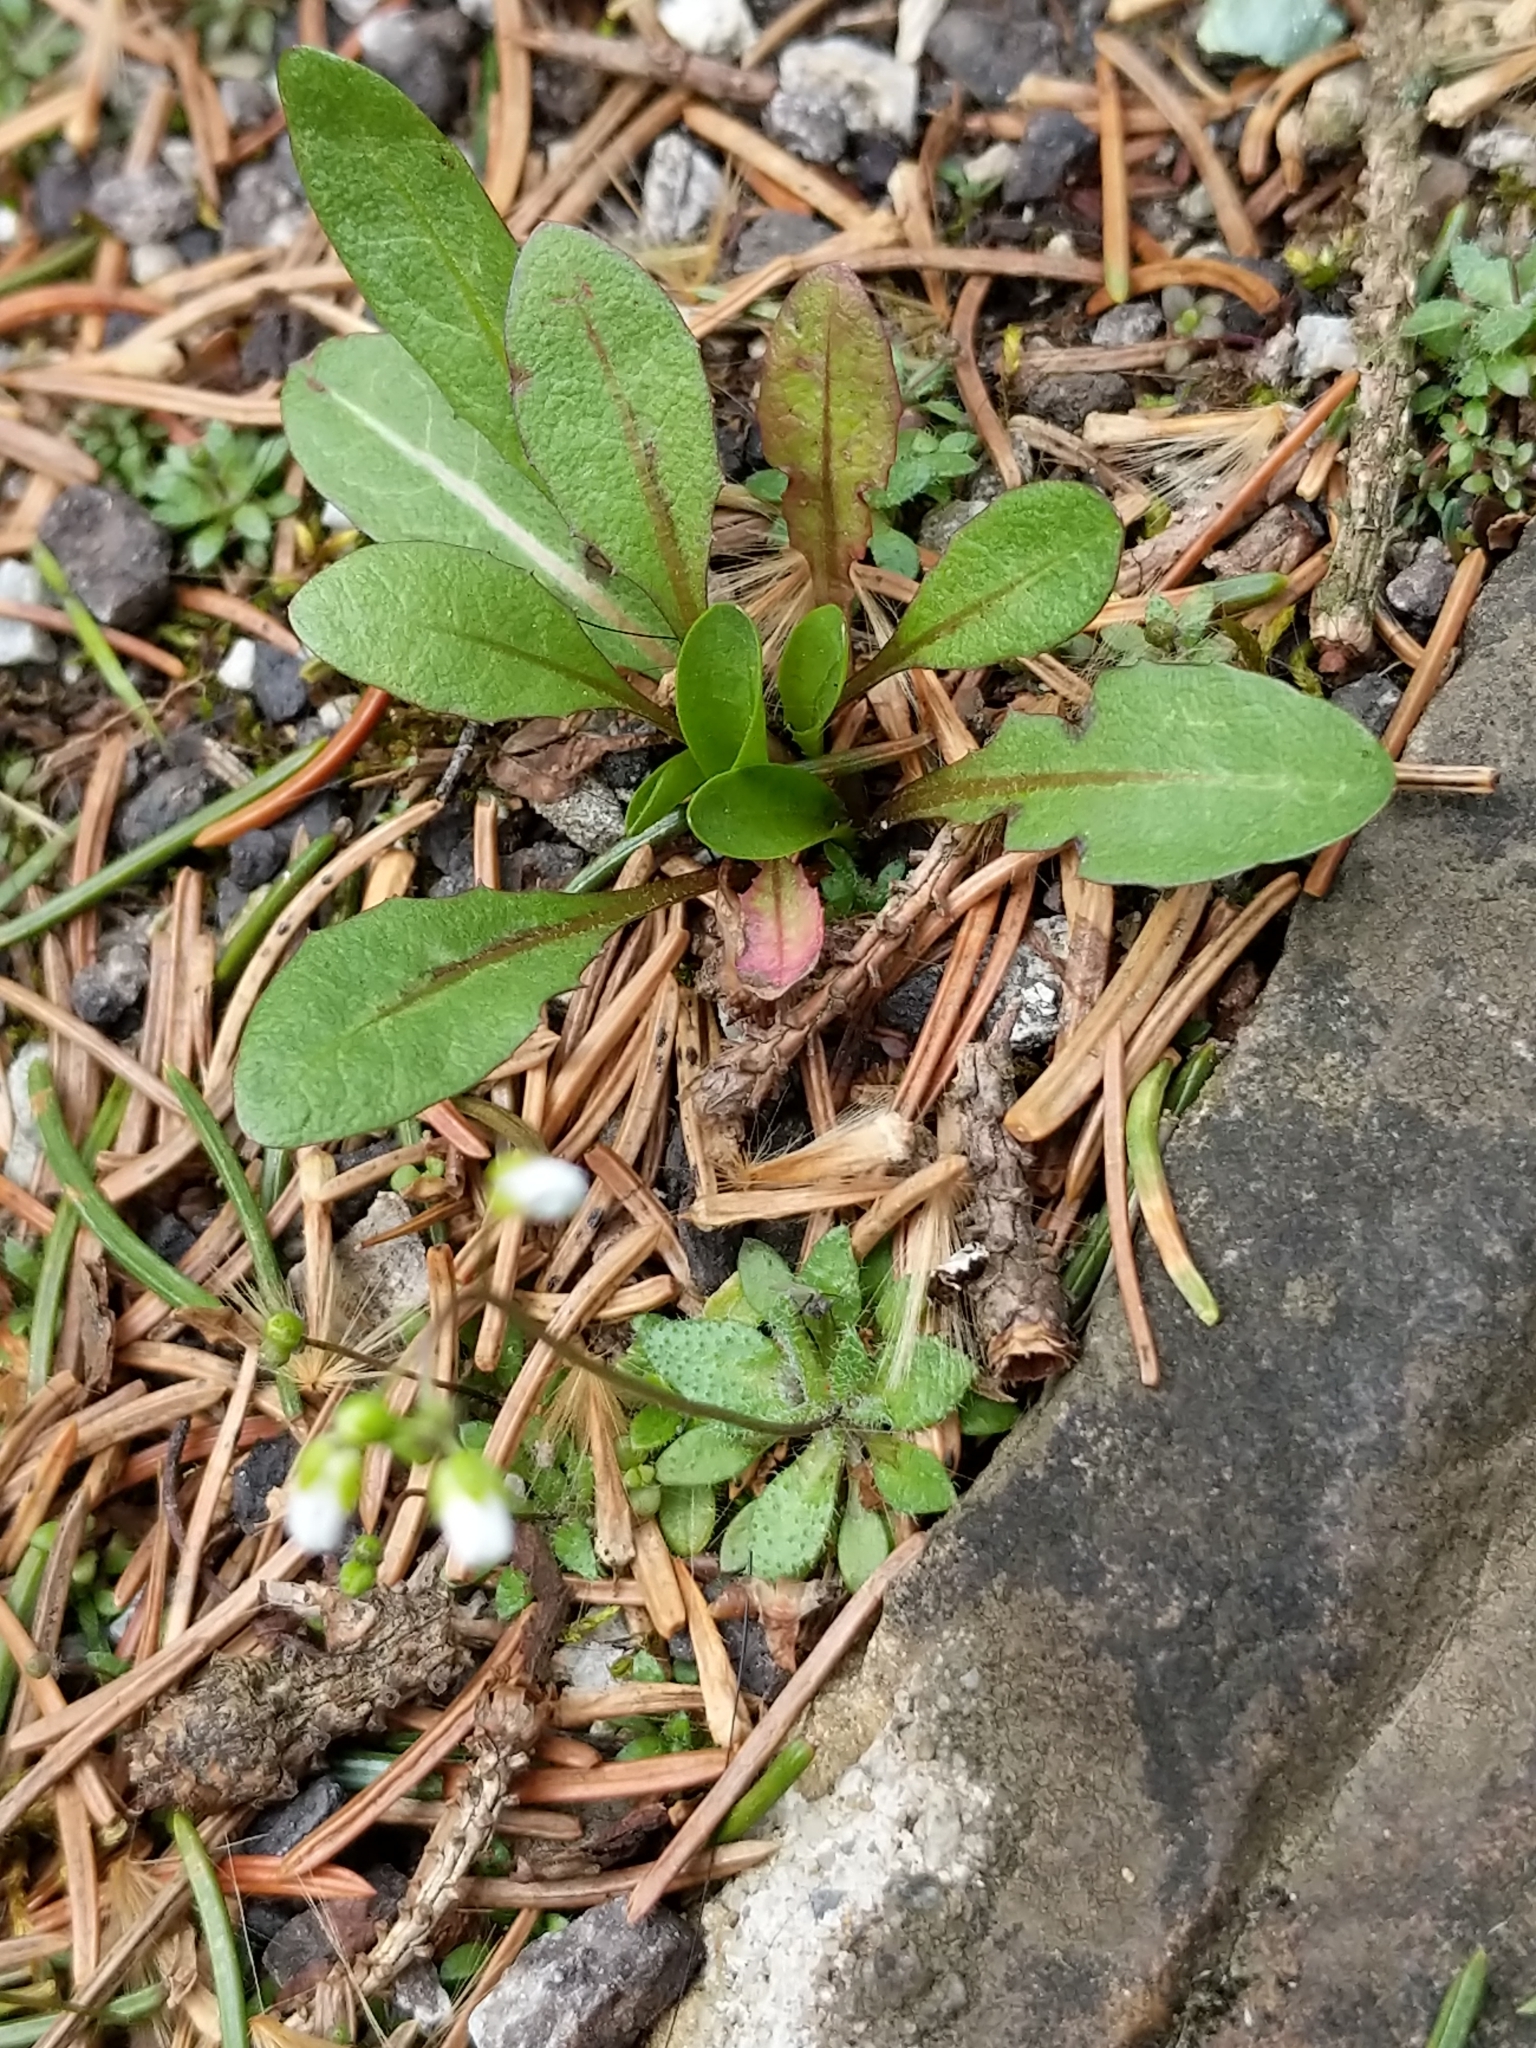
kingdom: Plantae
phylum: Tracheophyta
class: Magnoliopsida
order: Brassicales
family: Brassicaceae
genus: Draba
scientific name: Draba verna
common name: Spring draba
